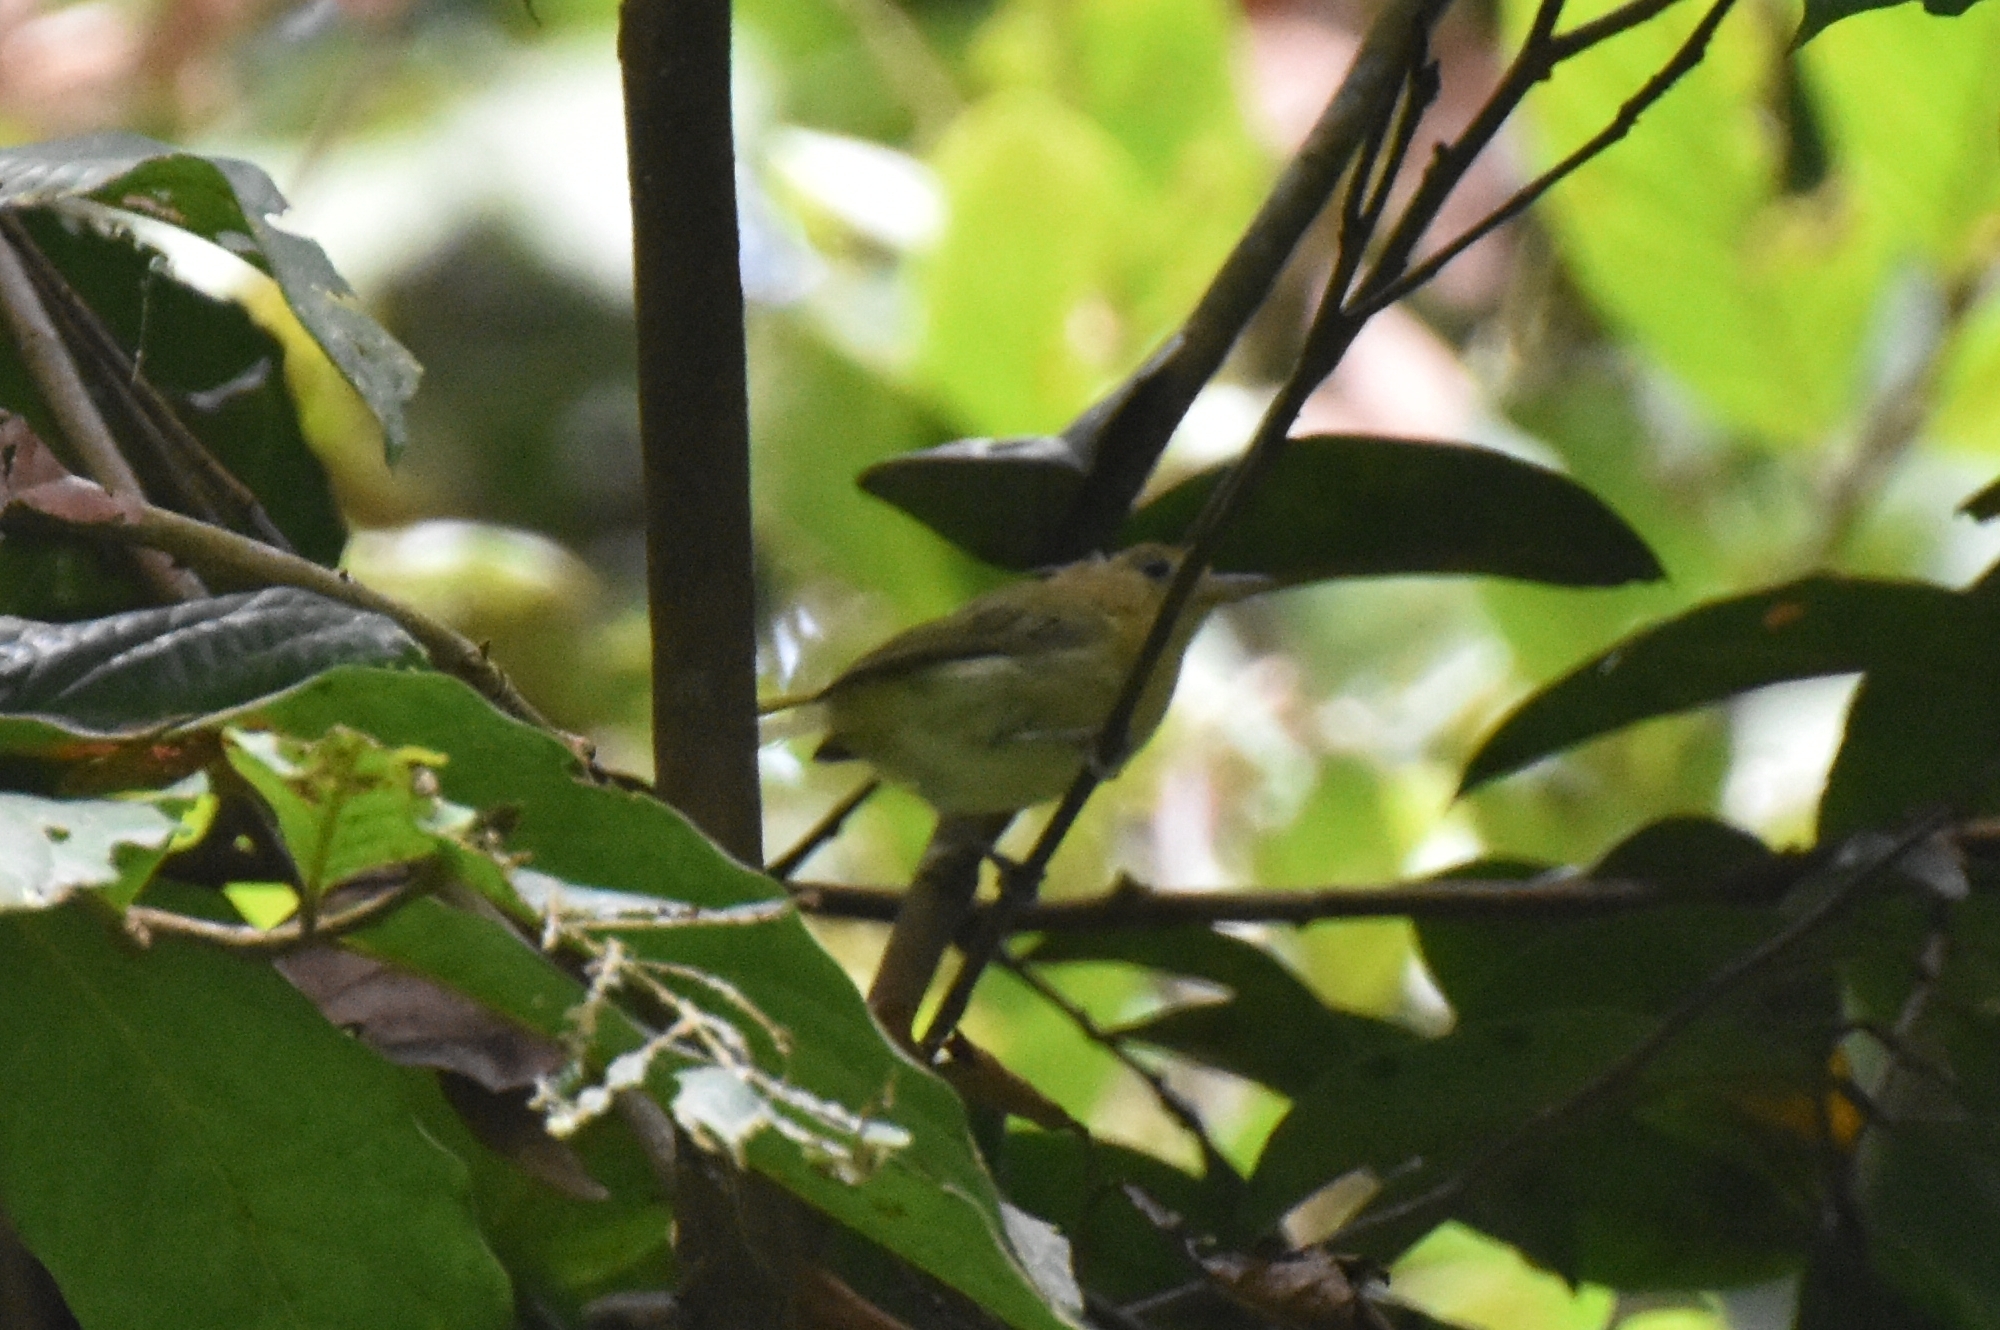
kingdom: Animalia
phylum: Chordata
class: Aves
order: Passeriformes
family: Vireonidae
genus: Hylophilus
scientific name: Hylophilus aurantiifrons
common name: Golden-fronted greenlet
